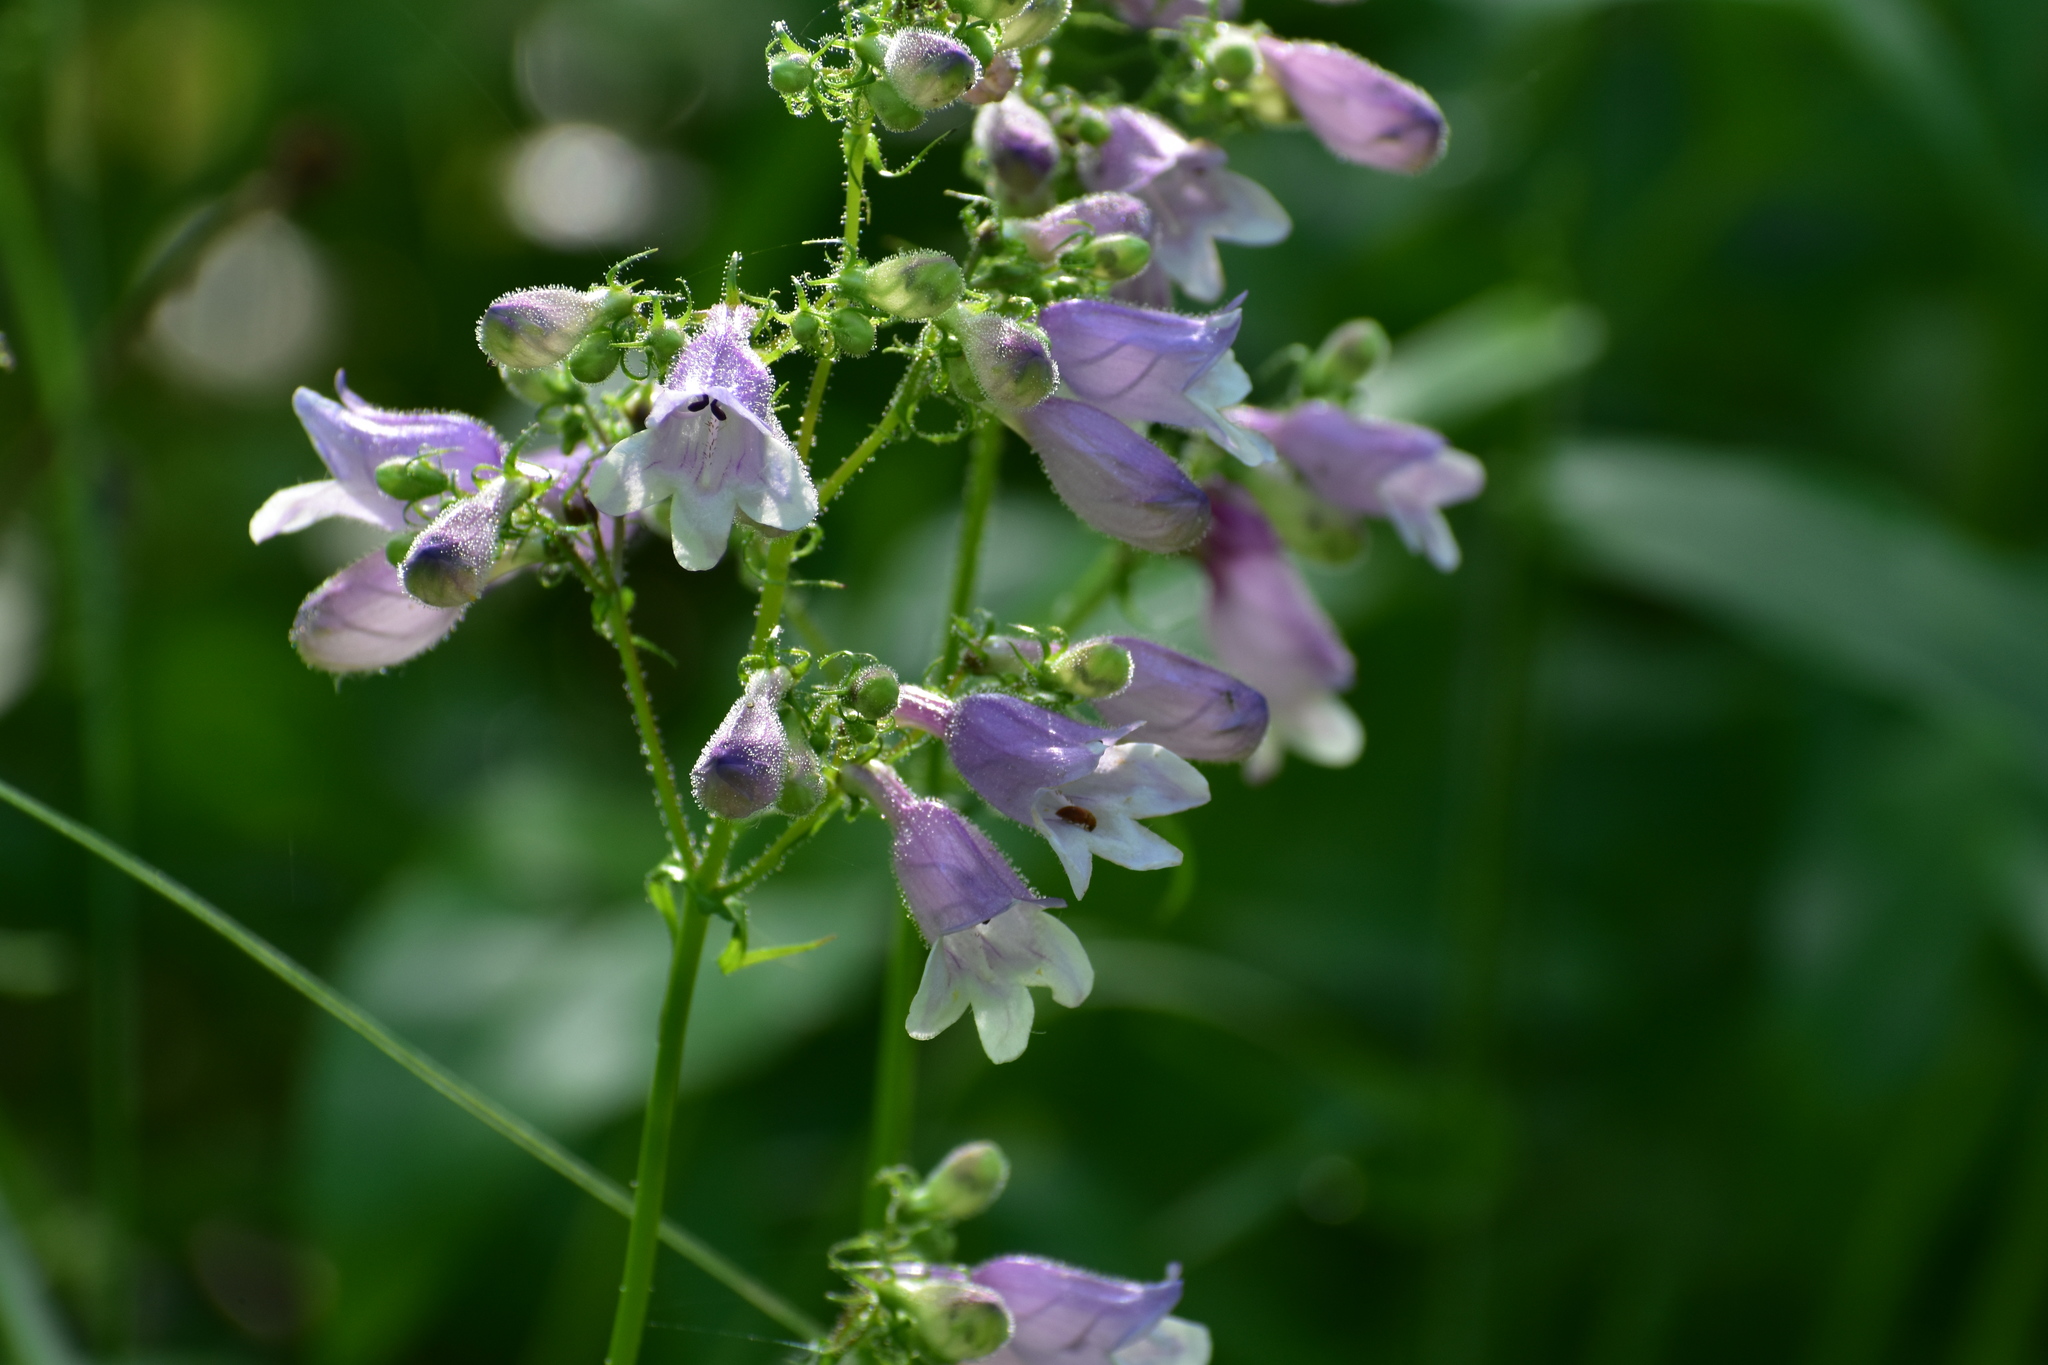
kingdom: Plantae
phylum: Tracheophyta
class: Magnoliopsida
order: Lamiales
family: Plantaginaceae
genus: Penstemon
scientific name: Penstemon calycosus
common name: Long-sepal beardtongue
